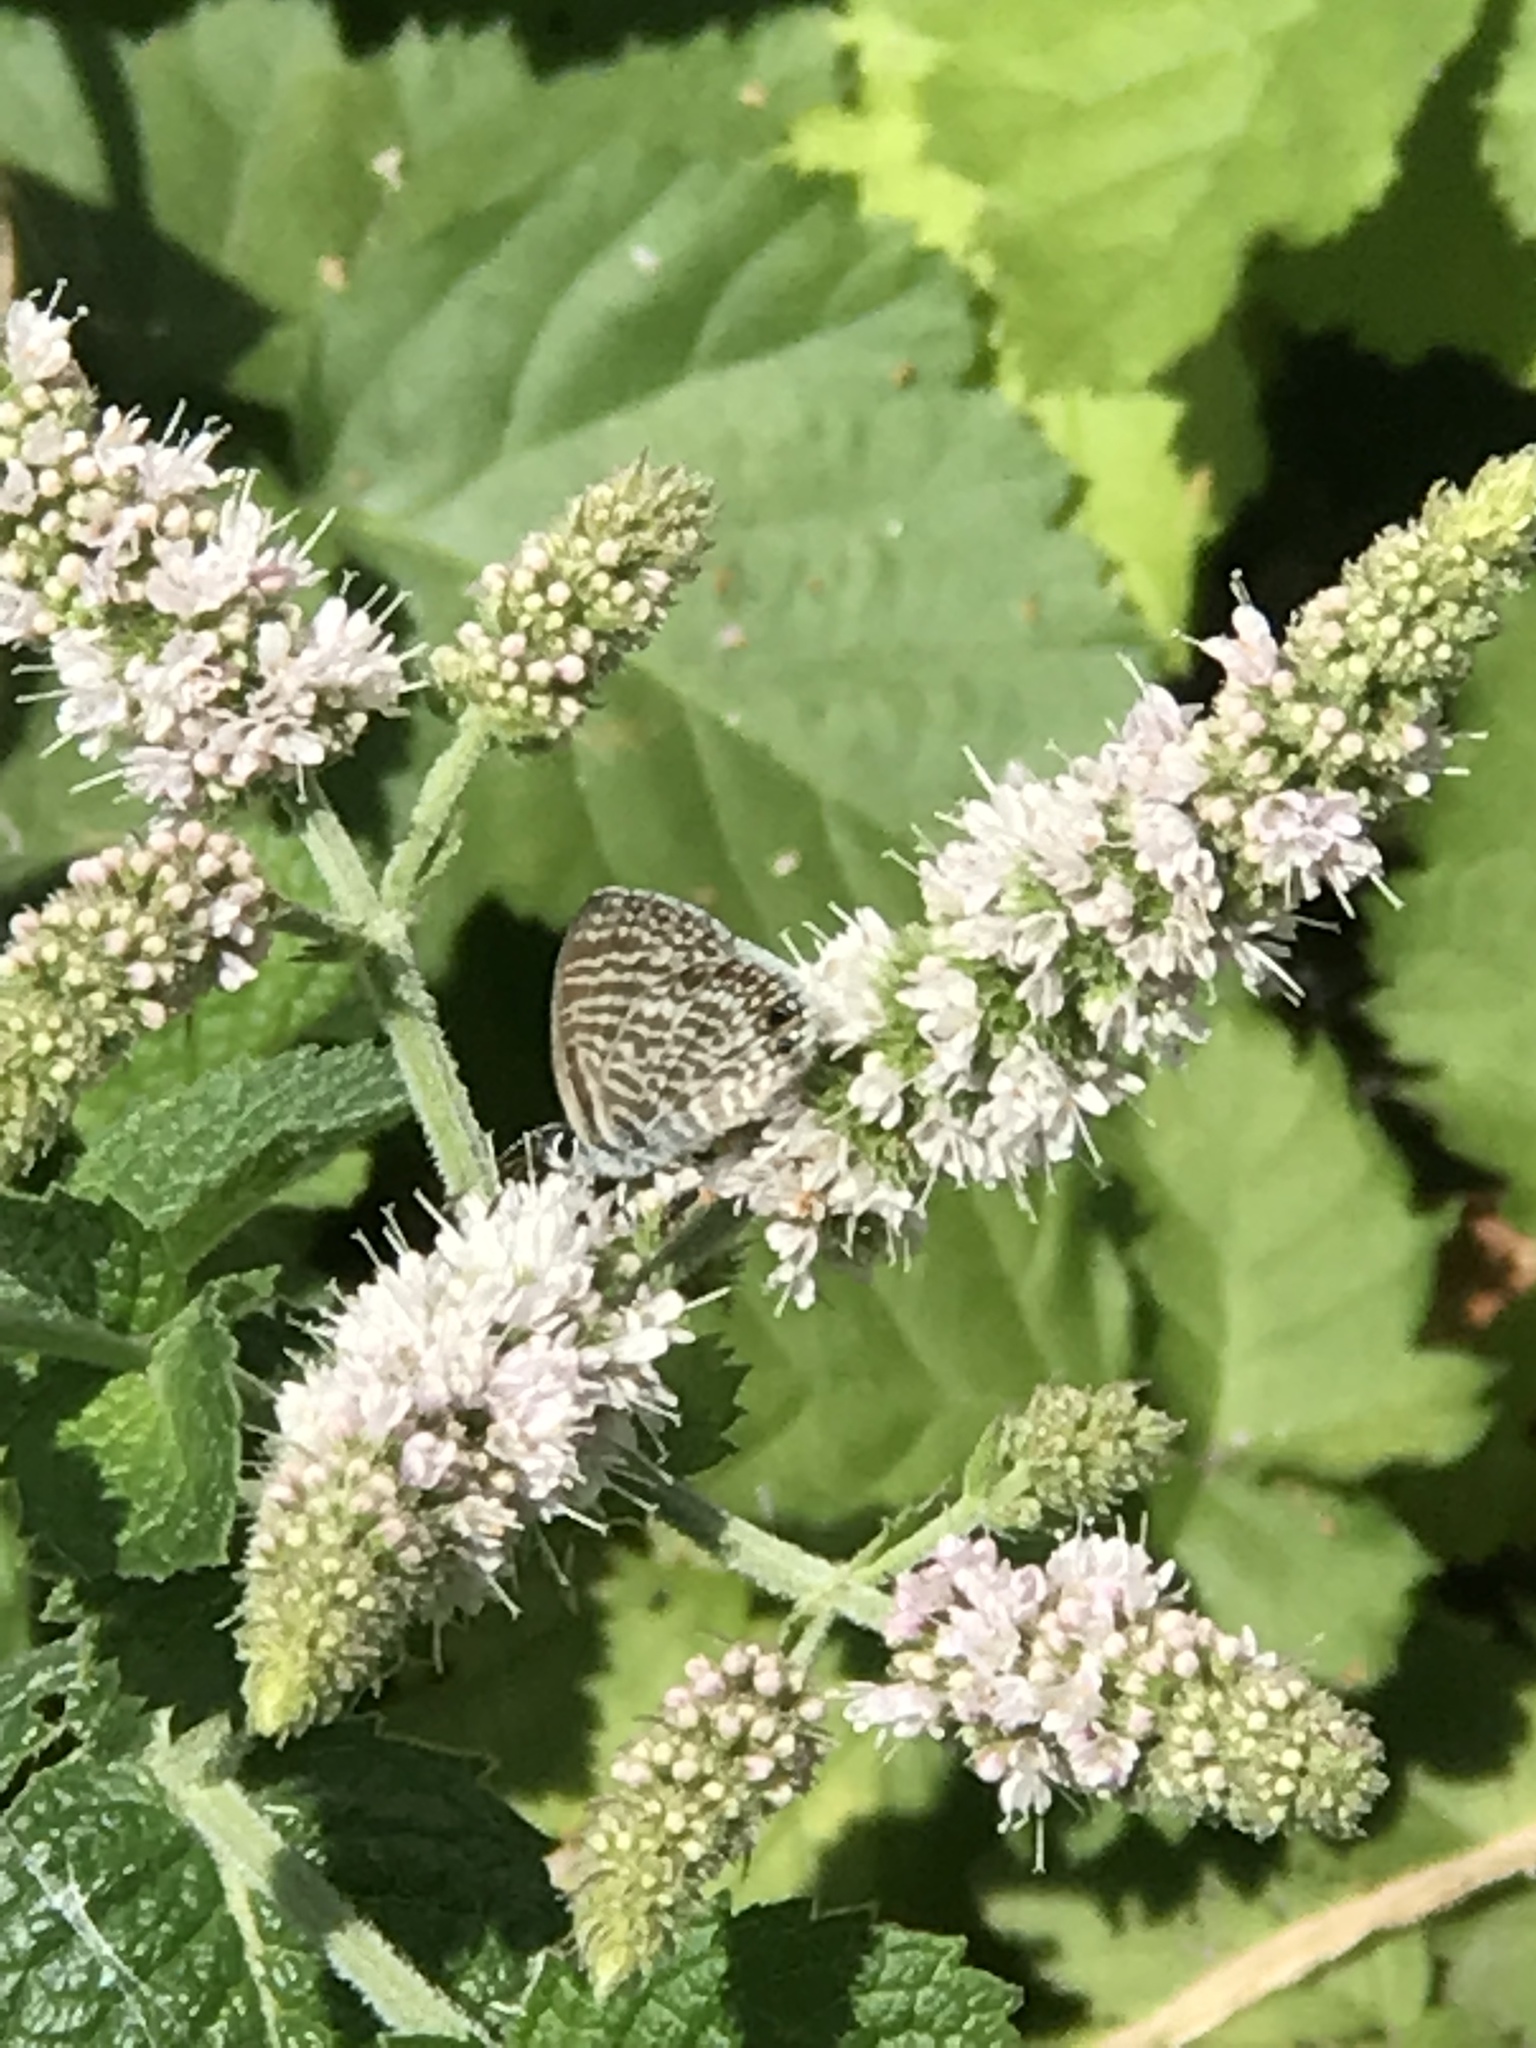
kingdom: Animalia
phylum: Arthropoda
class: Insecta
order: Lepidoptera
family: Lycaenidae
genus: Leptotes
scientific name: Leptotes marina
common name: Marine blue
